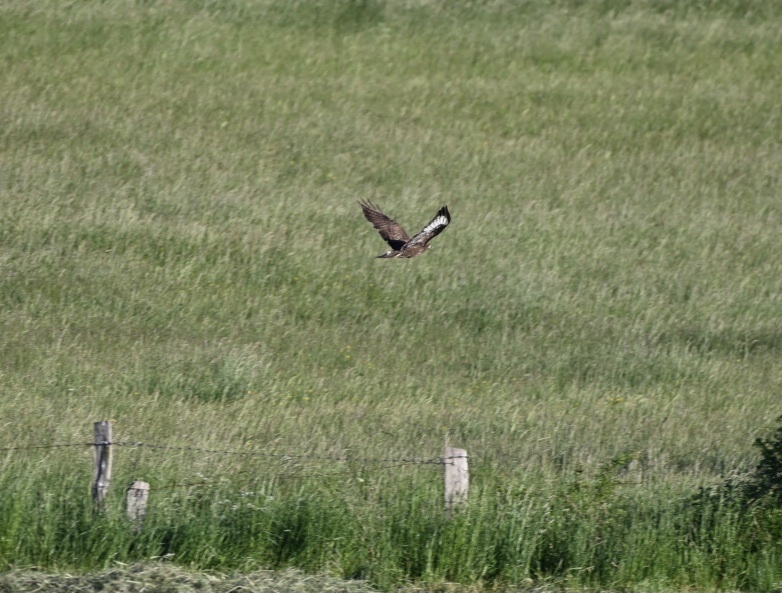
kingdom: Animalia
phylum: Chordata
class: Aves
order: Accipitriformes
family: Accipitridae
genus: Buteo
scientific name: Buteo buteo
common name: Common buzzard
